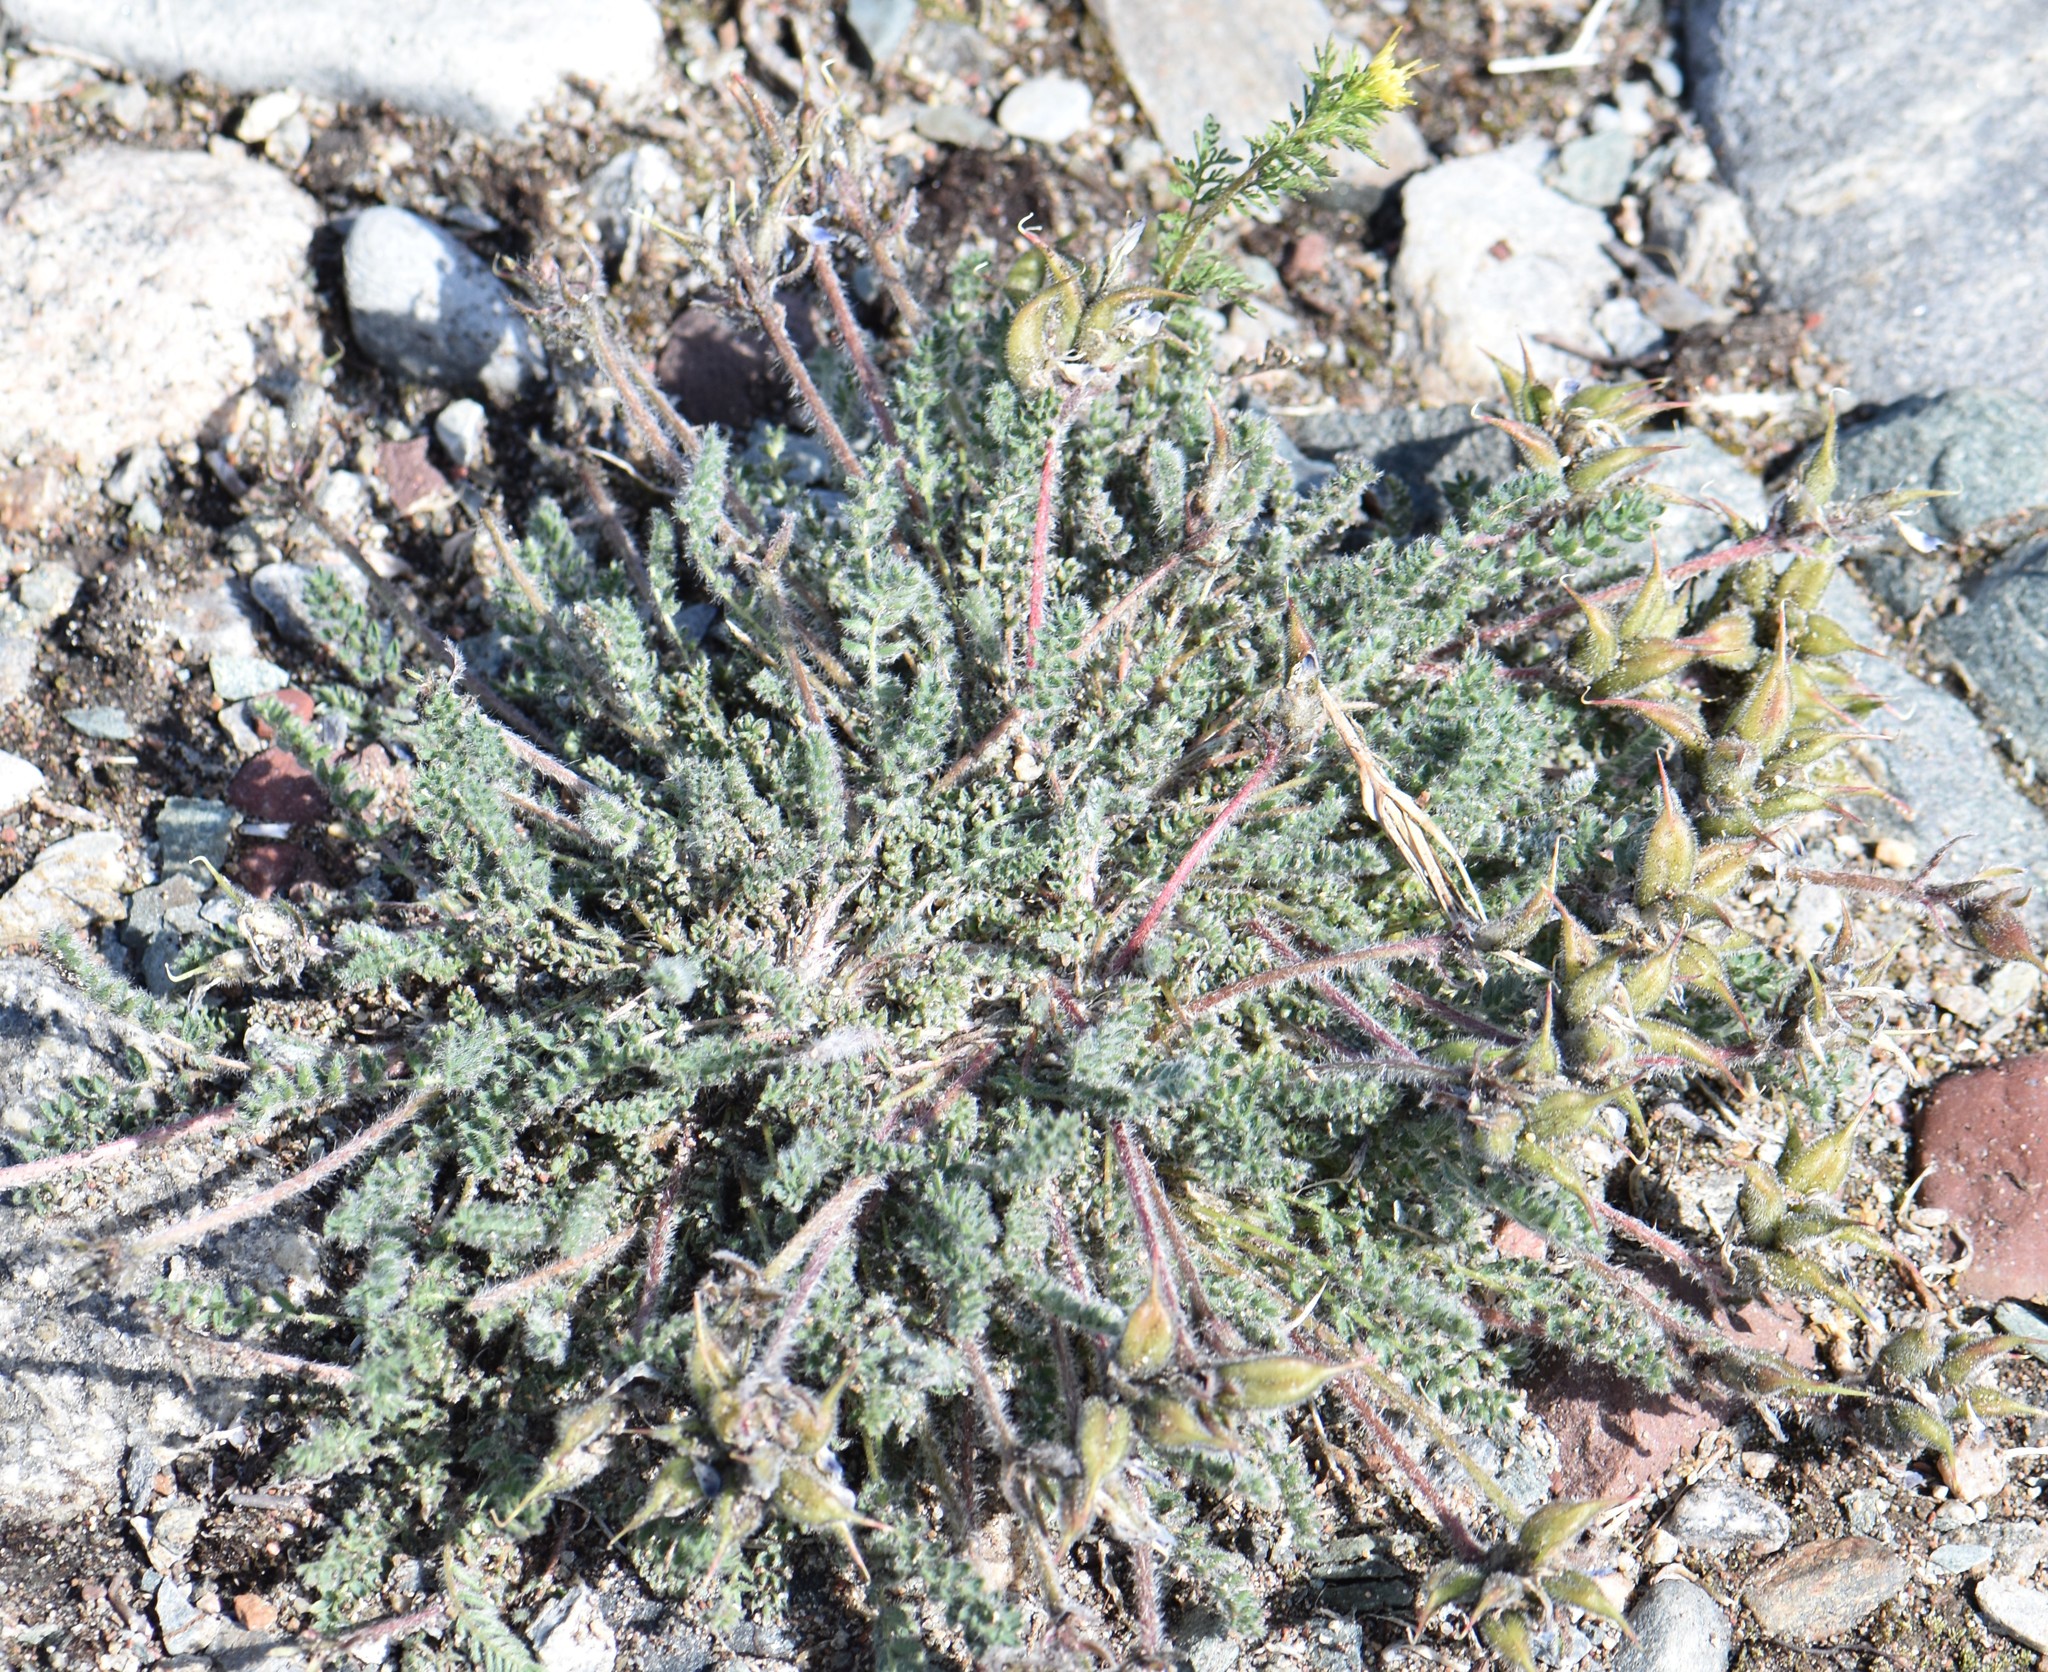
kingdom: Plantae
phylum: Tracheophyta
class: Magnoliopsida
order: Fabales
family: Fabaceae
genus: Oxytropis
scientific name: Oxytropis arctica
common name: Arctic locoweed
